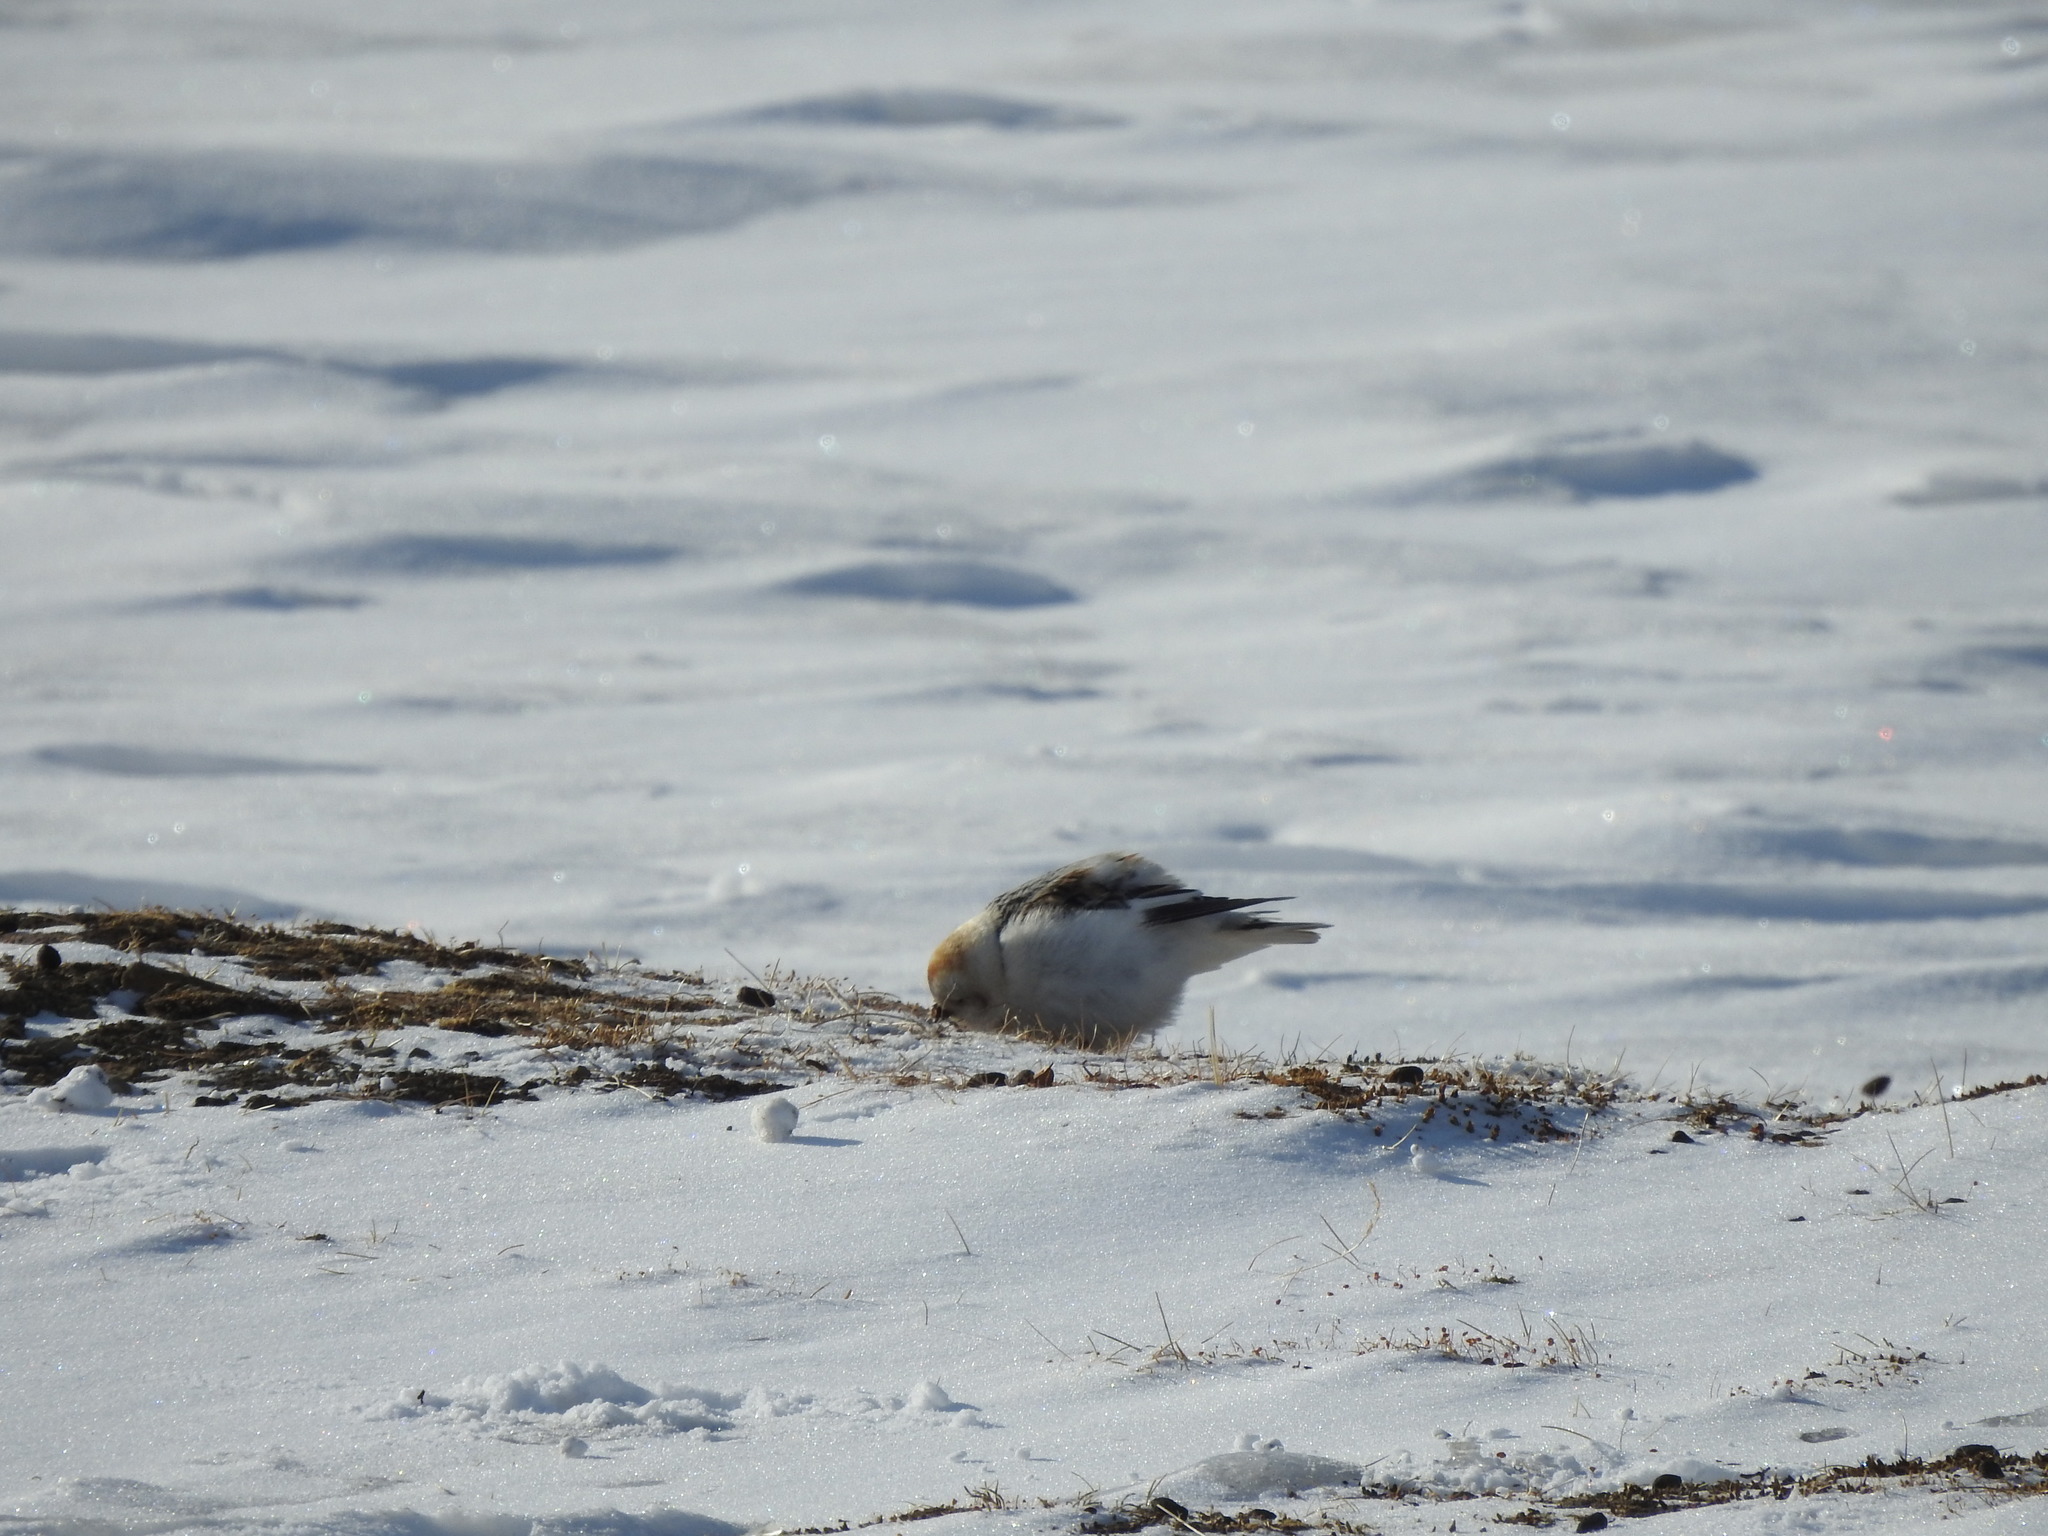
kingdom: Animalia
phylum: Chordata
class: Aves
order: Passeriformes
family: Calcariidae
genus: Plectrophenax
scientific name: Plectrophenax nivalis
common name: Snow bunting
